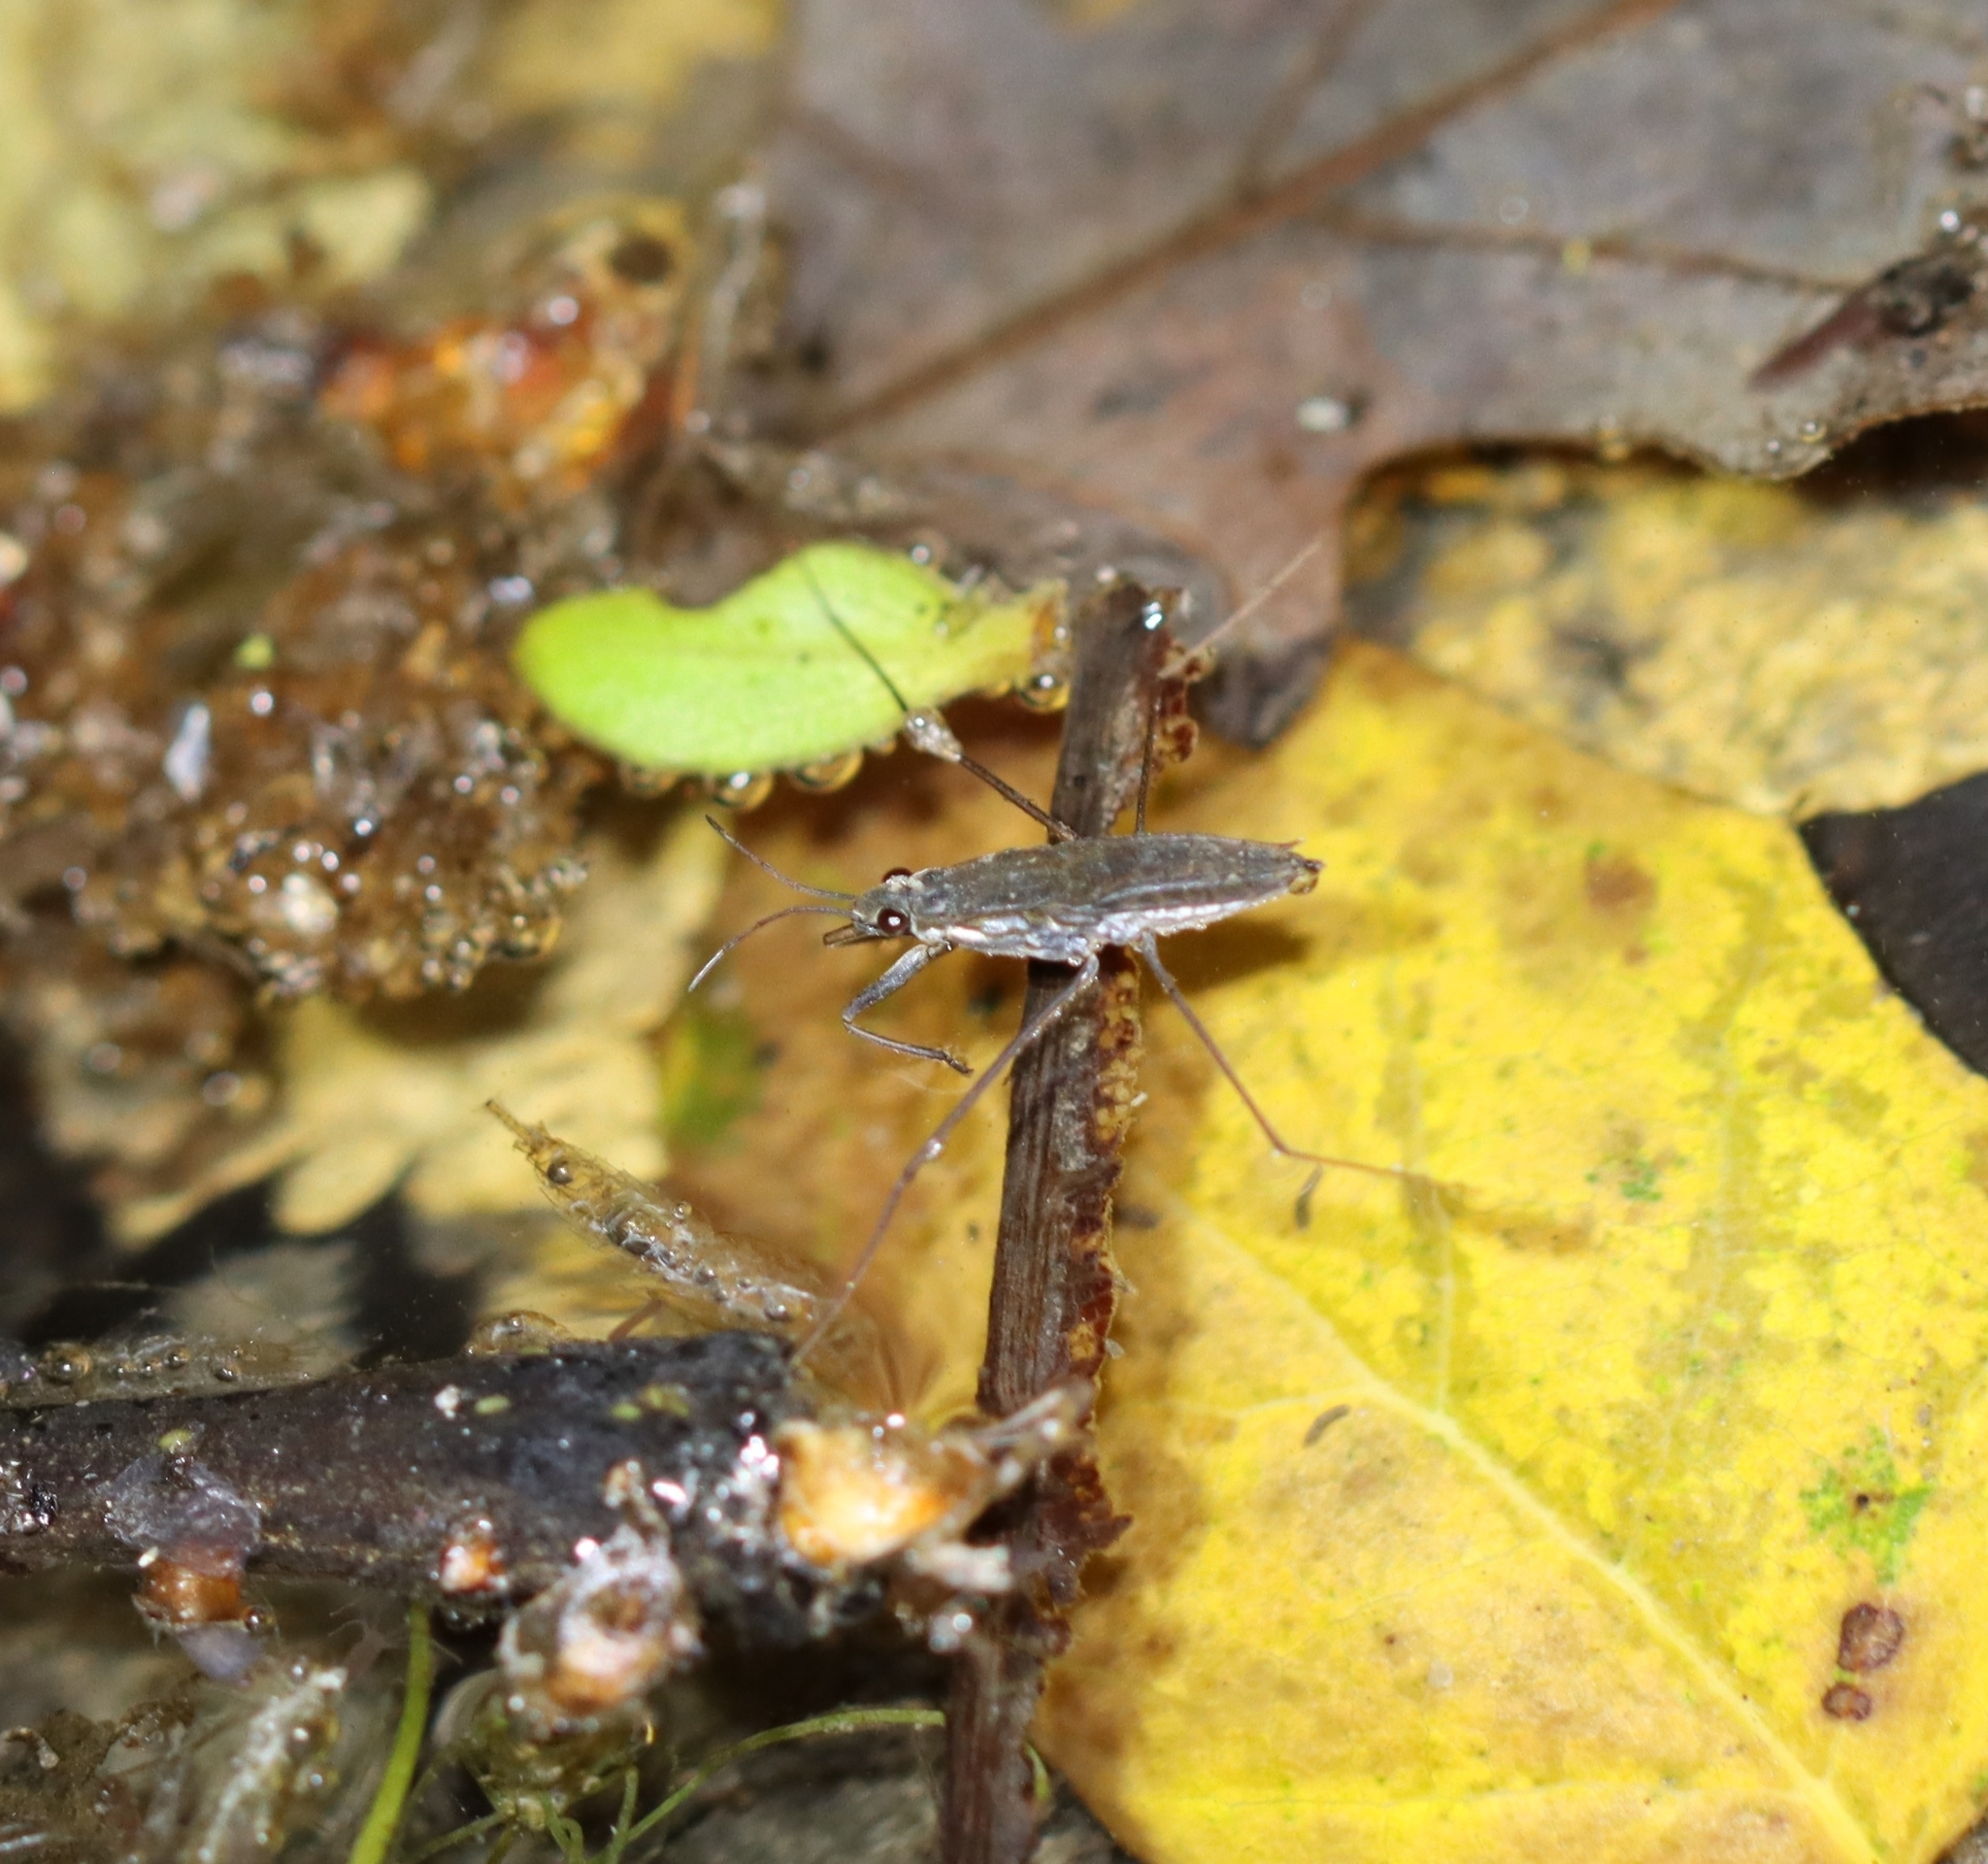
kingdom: Animalia
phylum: Arthropoda
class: Insecta
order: Hemiptera
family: Gerridae
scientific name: Gerridae
